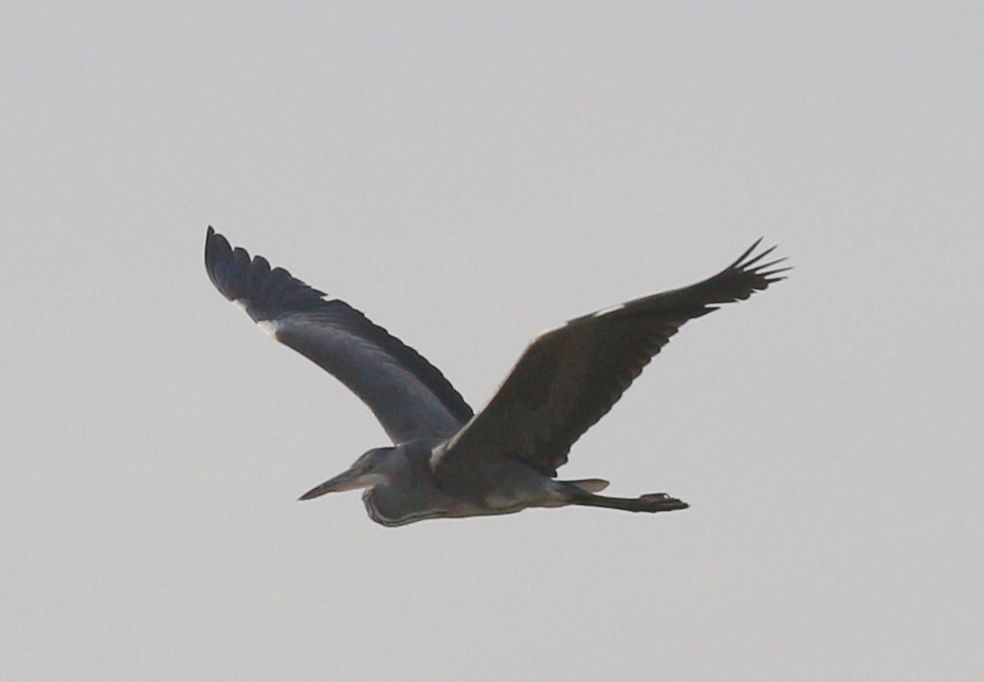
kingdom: Animalia
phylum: Chordata
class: Aves
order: Pelecaniformes
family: Ardeidae
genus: Ardea
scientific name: Ardea cinerea
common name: Grey heron
